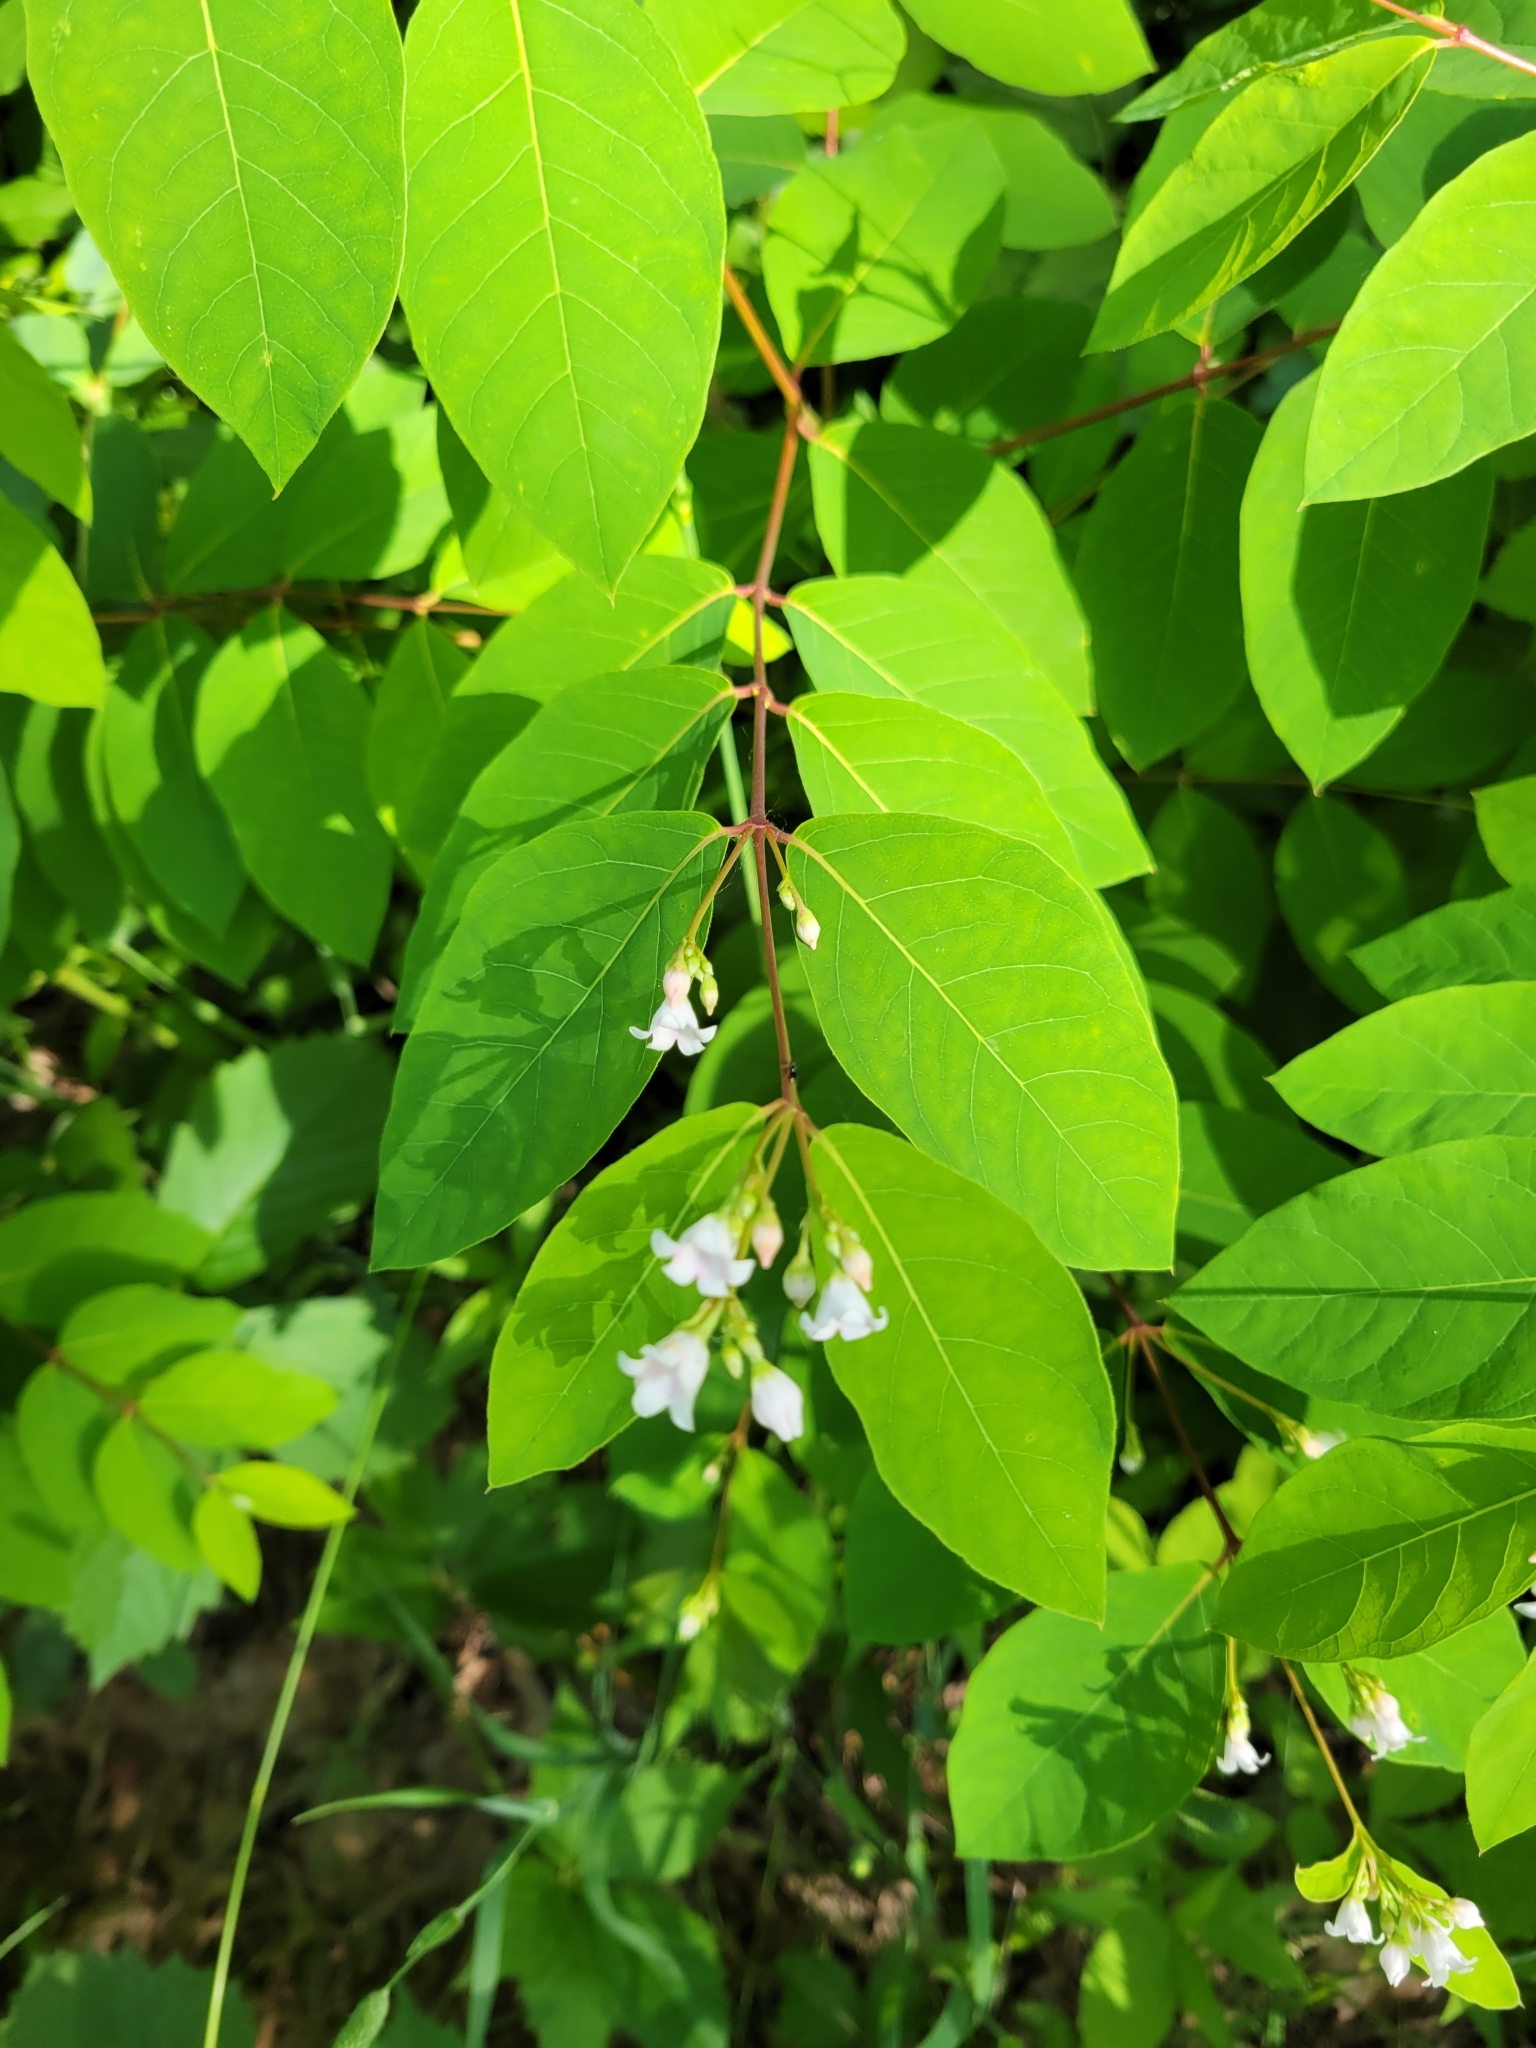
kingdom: Plantae
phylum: Tracheophyta
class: Magnoliopsida
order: Gentianales
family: Apocynaceae
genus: Apocynum
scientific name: Apocynum androsaemifolium
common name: Spreading dogbane
